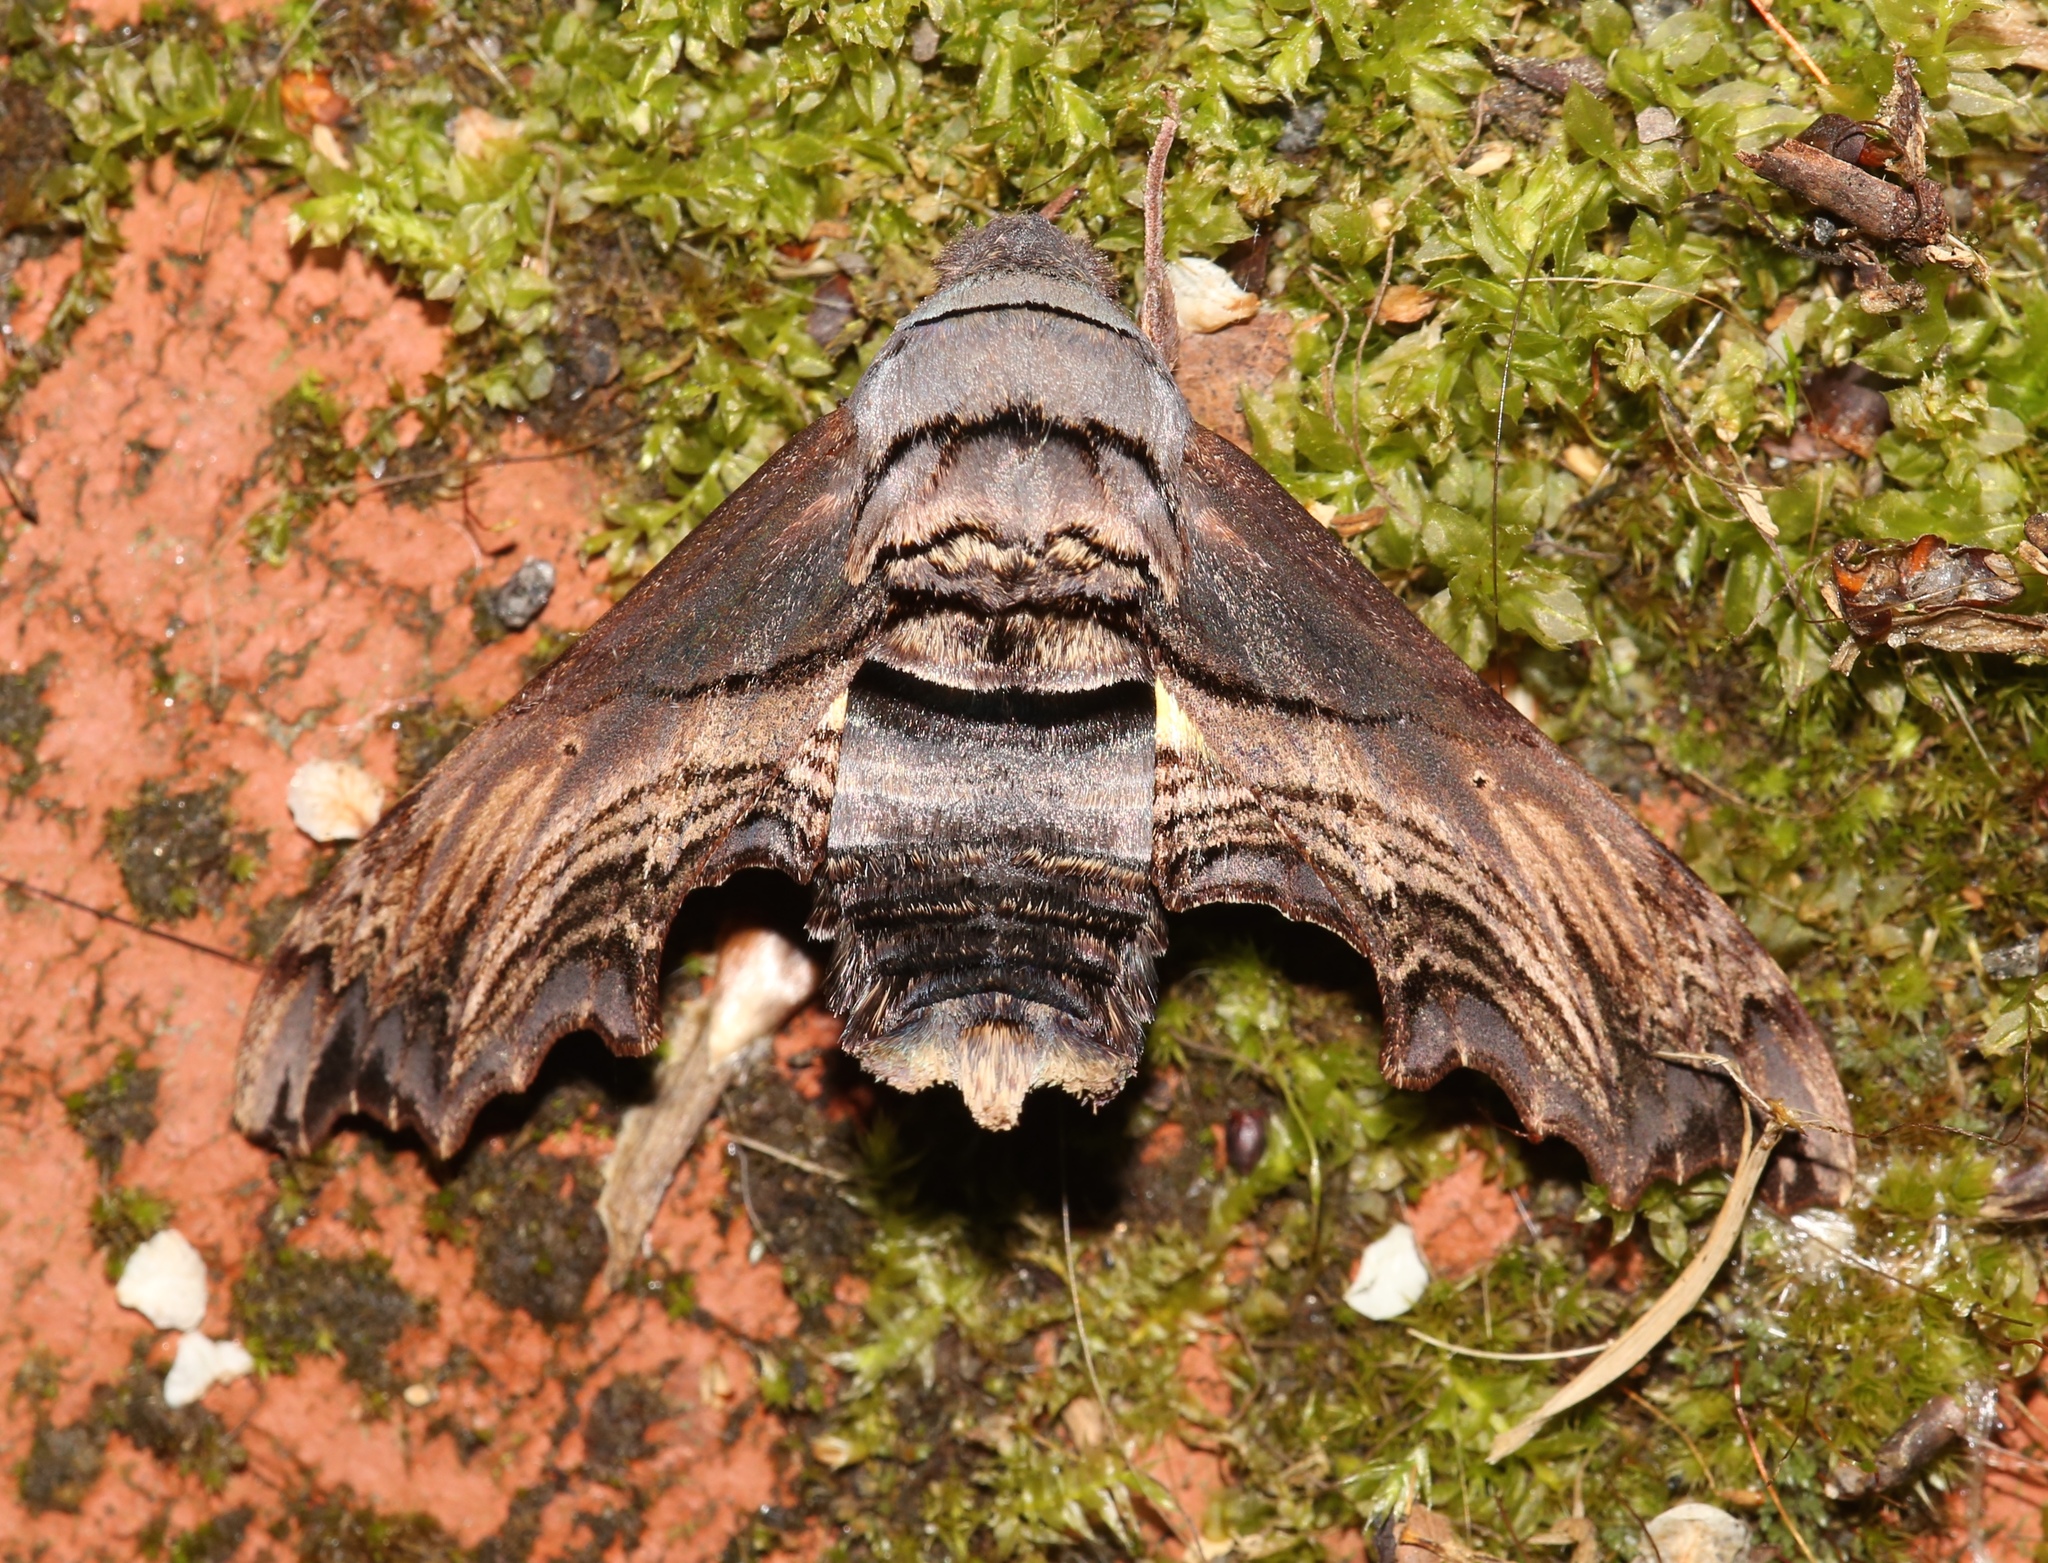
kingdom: Animalia
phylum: Arthropoda
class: Insecta
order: Lepidoptera
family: Sphingidae
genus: Sphecodina
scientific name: Sphecodina abbottii
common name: Abbott's sphinx
